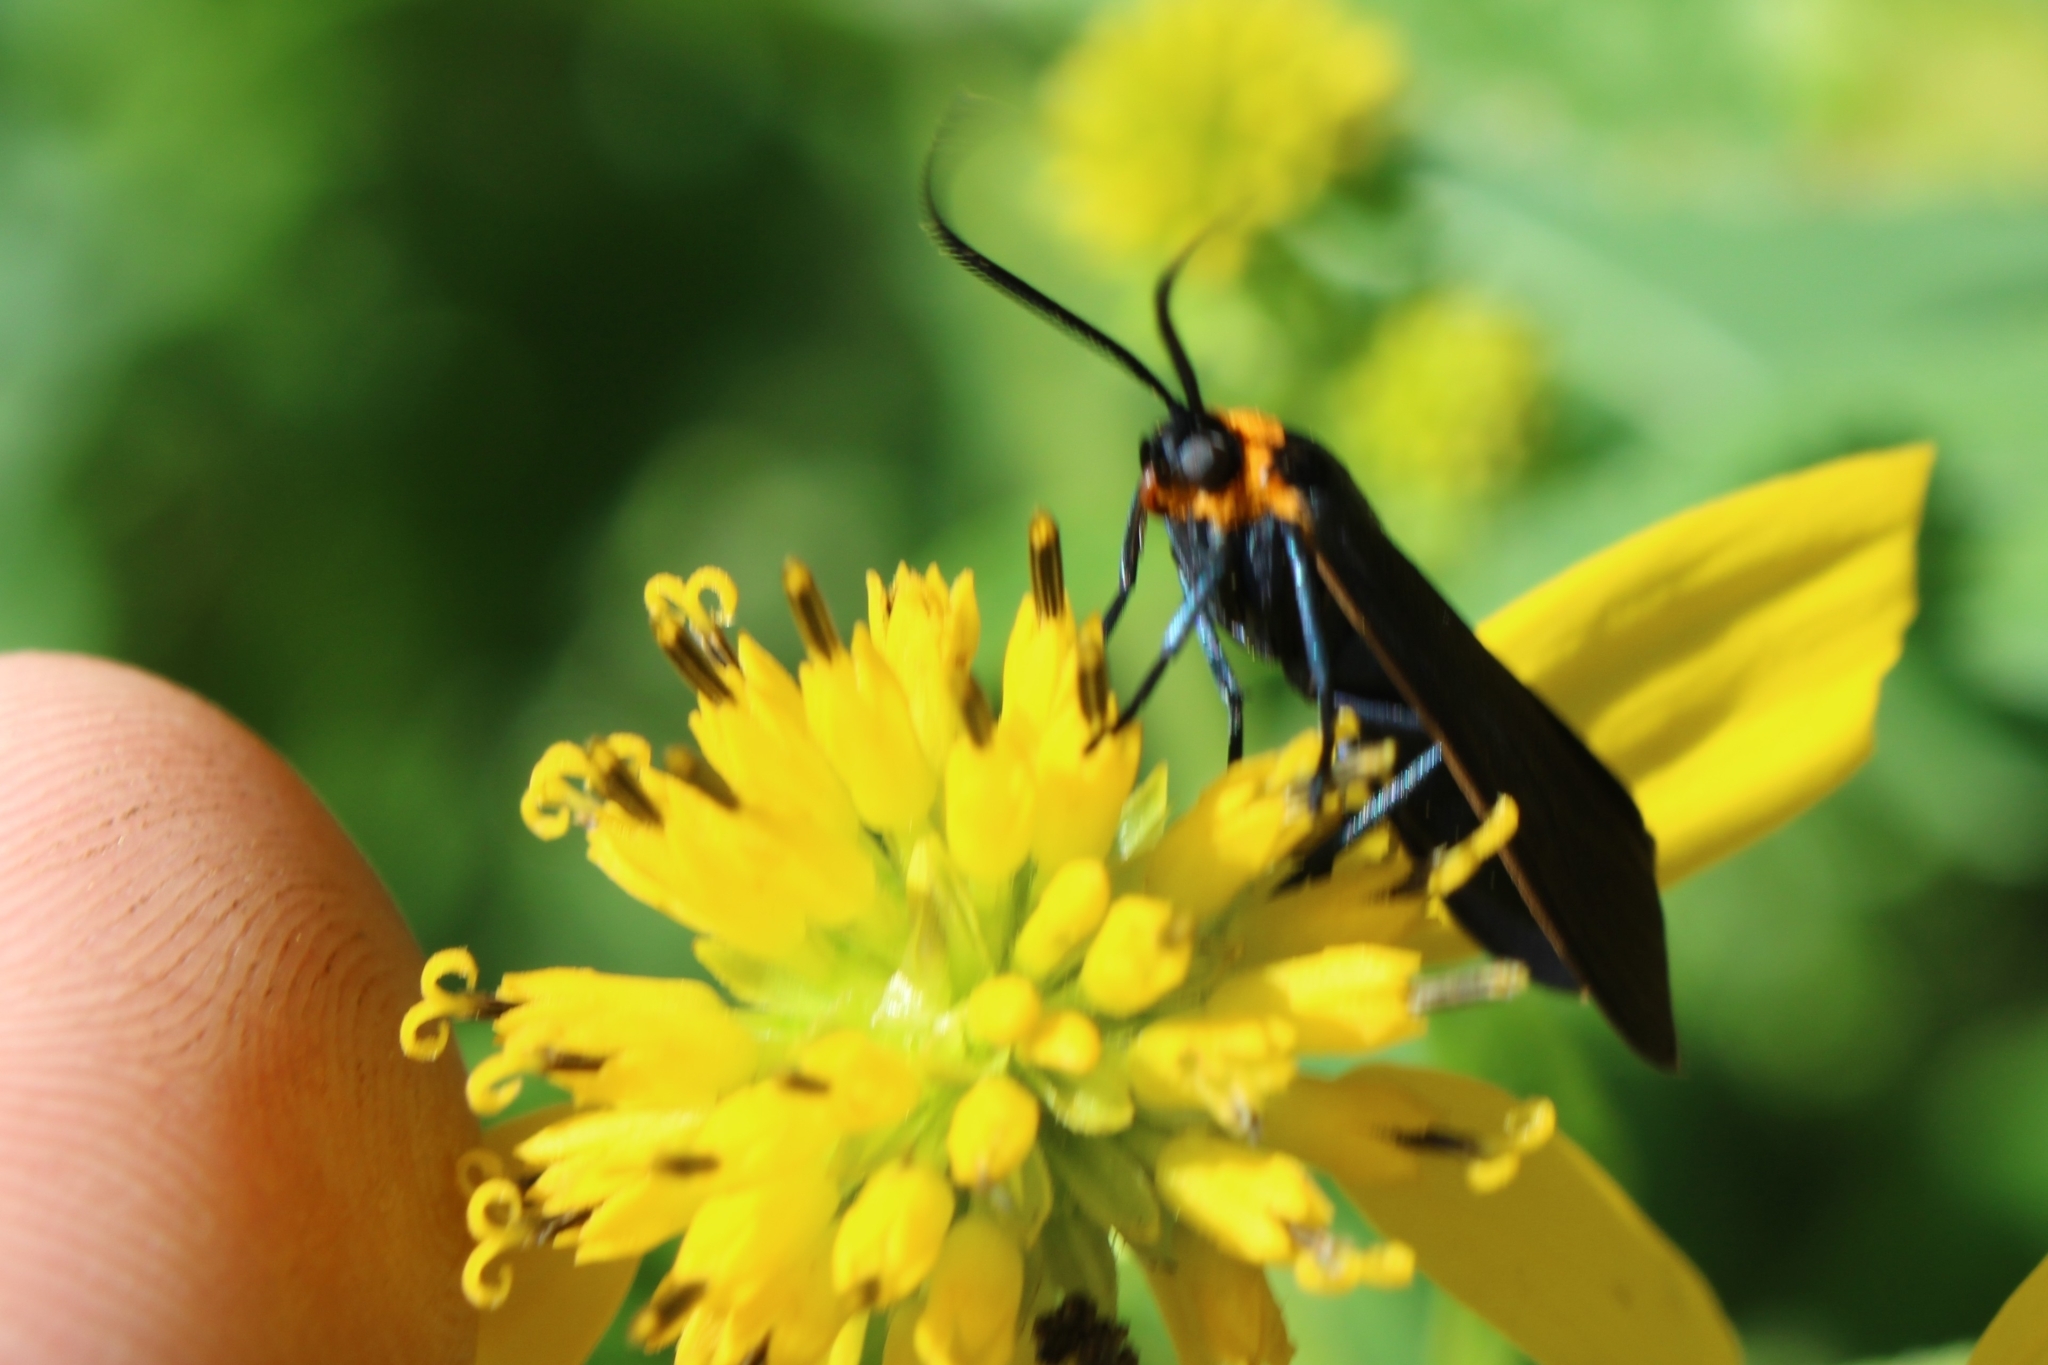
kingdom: Animalia
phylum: Arthropoda
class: Insecta
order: Lepidoptera
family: Erebidae
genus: Cisseps
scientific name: Cisseps fulvicollis
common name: Yellow-collared scape moth
